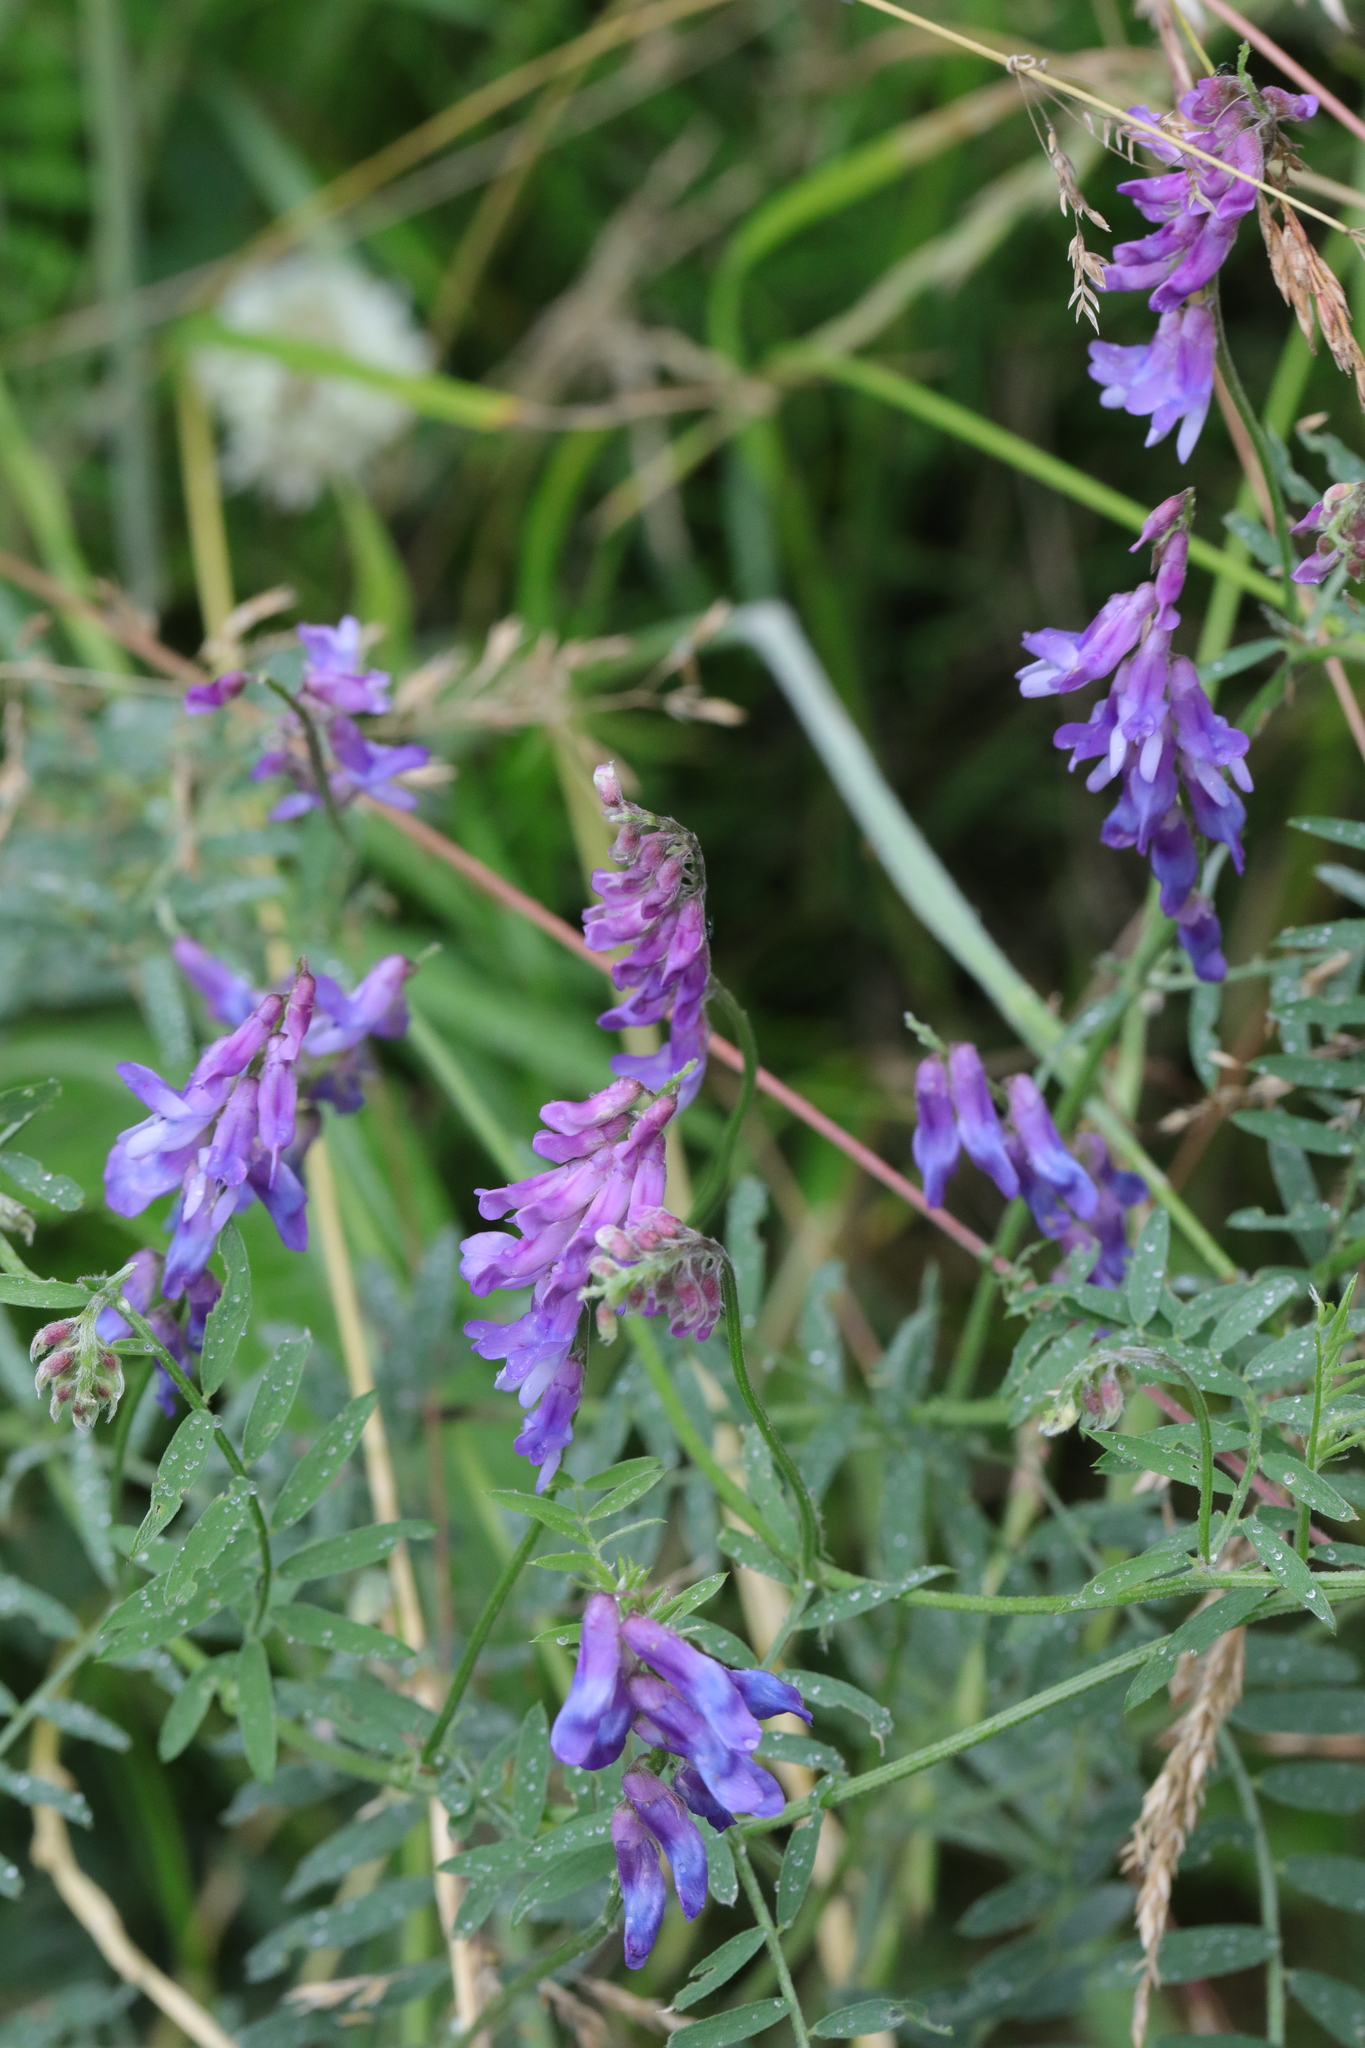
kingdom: Plantae
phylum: Tracheophyta
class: Magnoliopsida
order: Fabales
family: Fabaceae
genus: Vicia
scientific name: Vicia cracca
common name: Bird vetch
